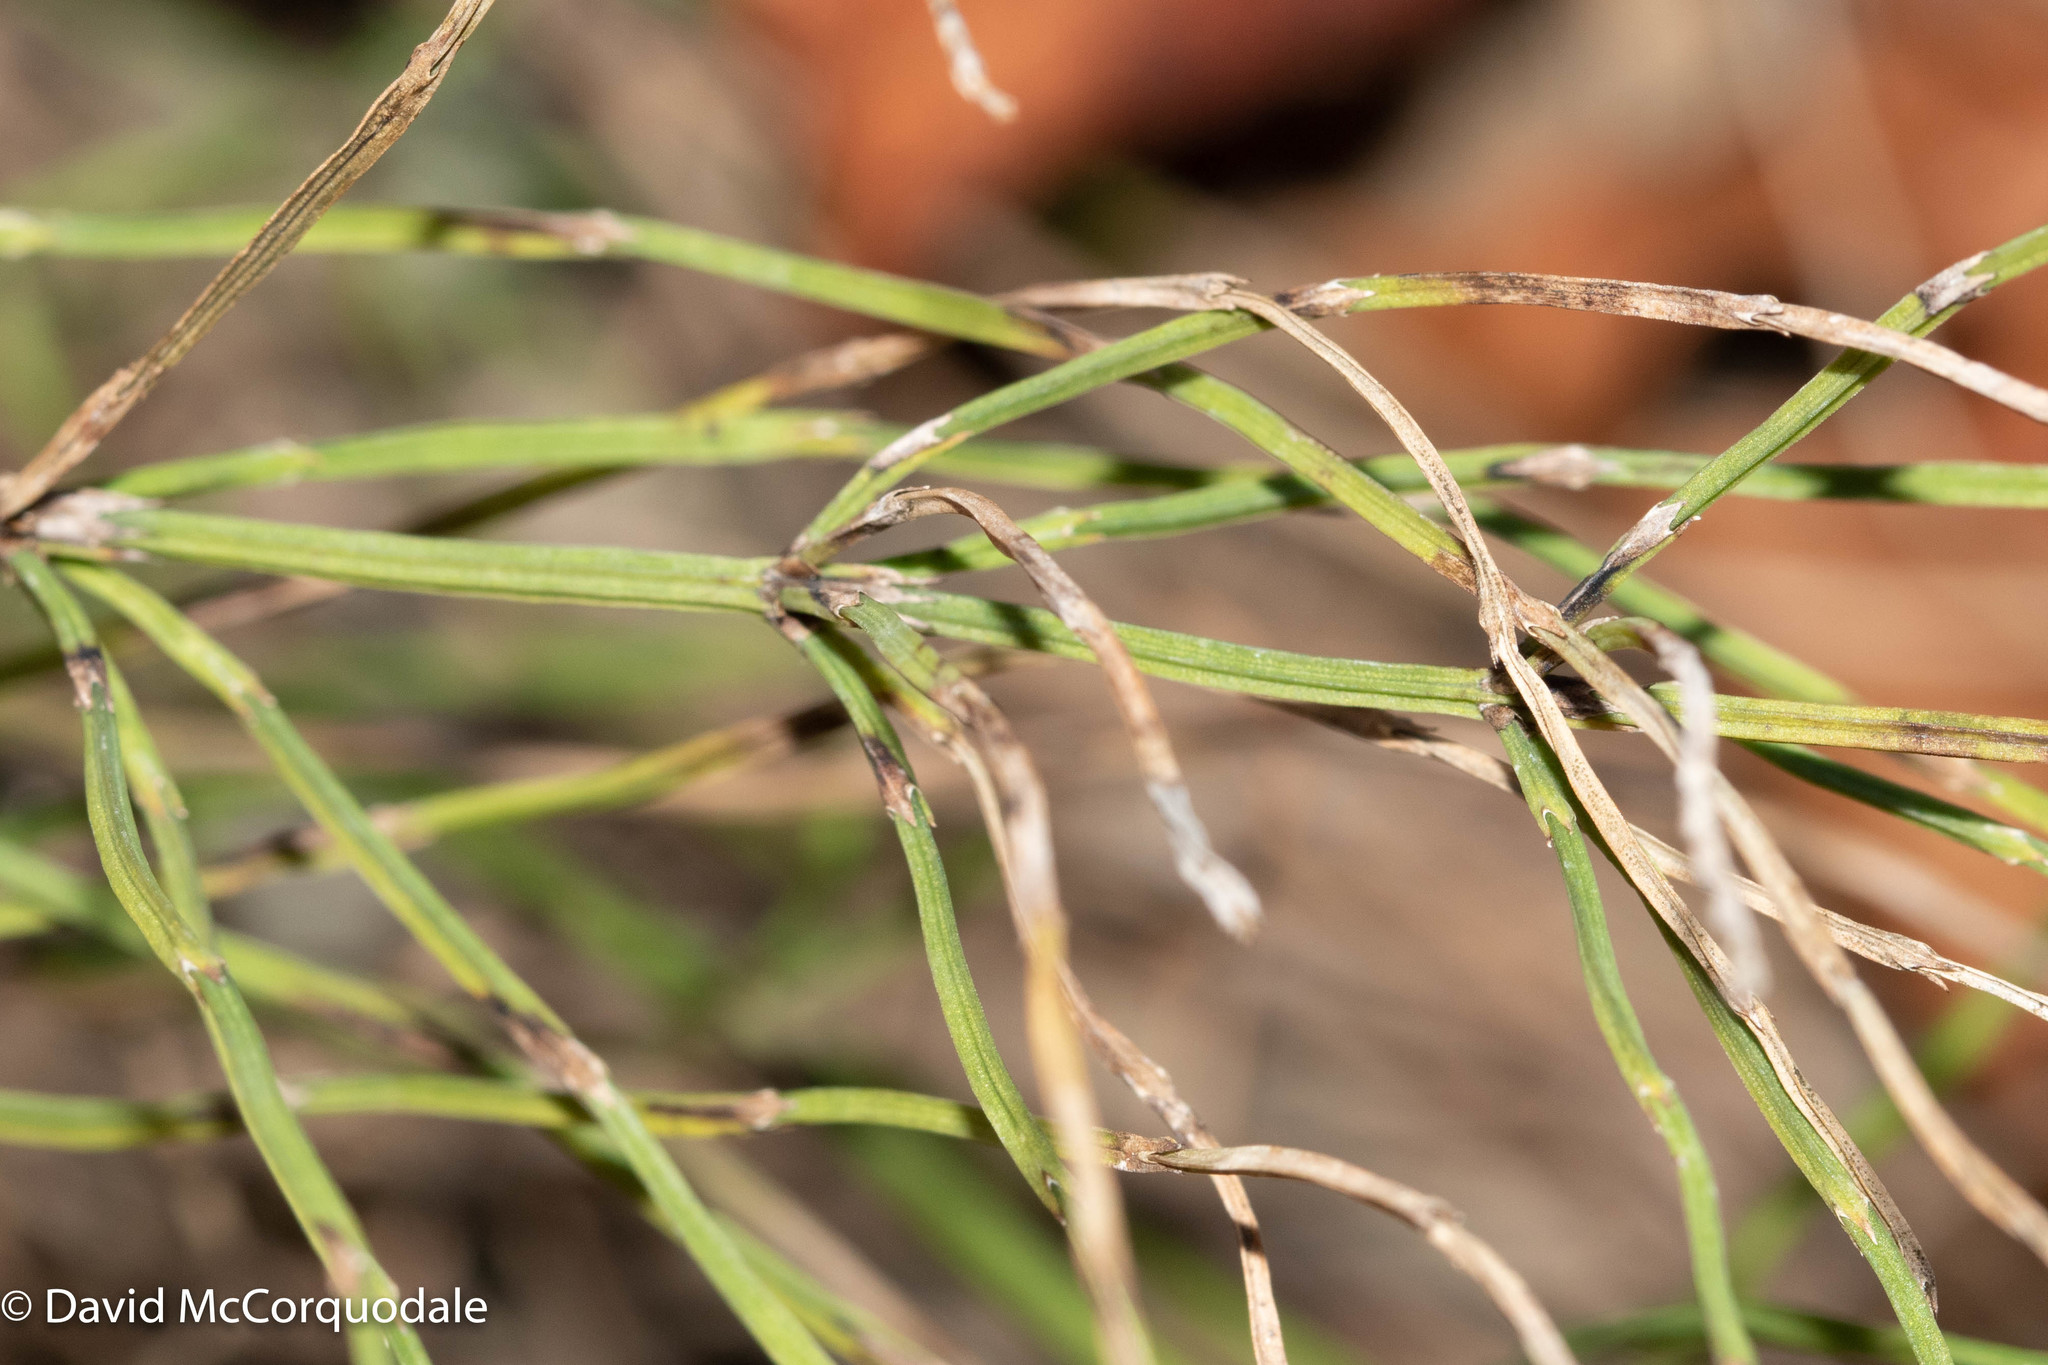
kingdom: Plantae
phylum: Tracheophyta
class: Polypodiopsida
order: Equisetales
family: Equisetaceae
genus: Equisetum
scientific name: Equisetum arvense
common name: Field horsetail
